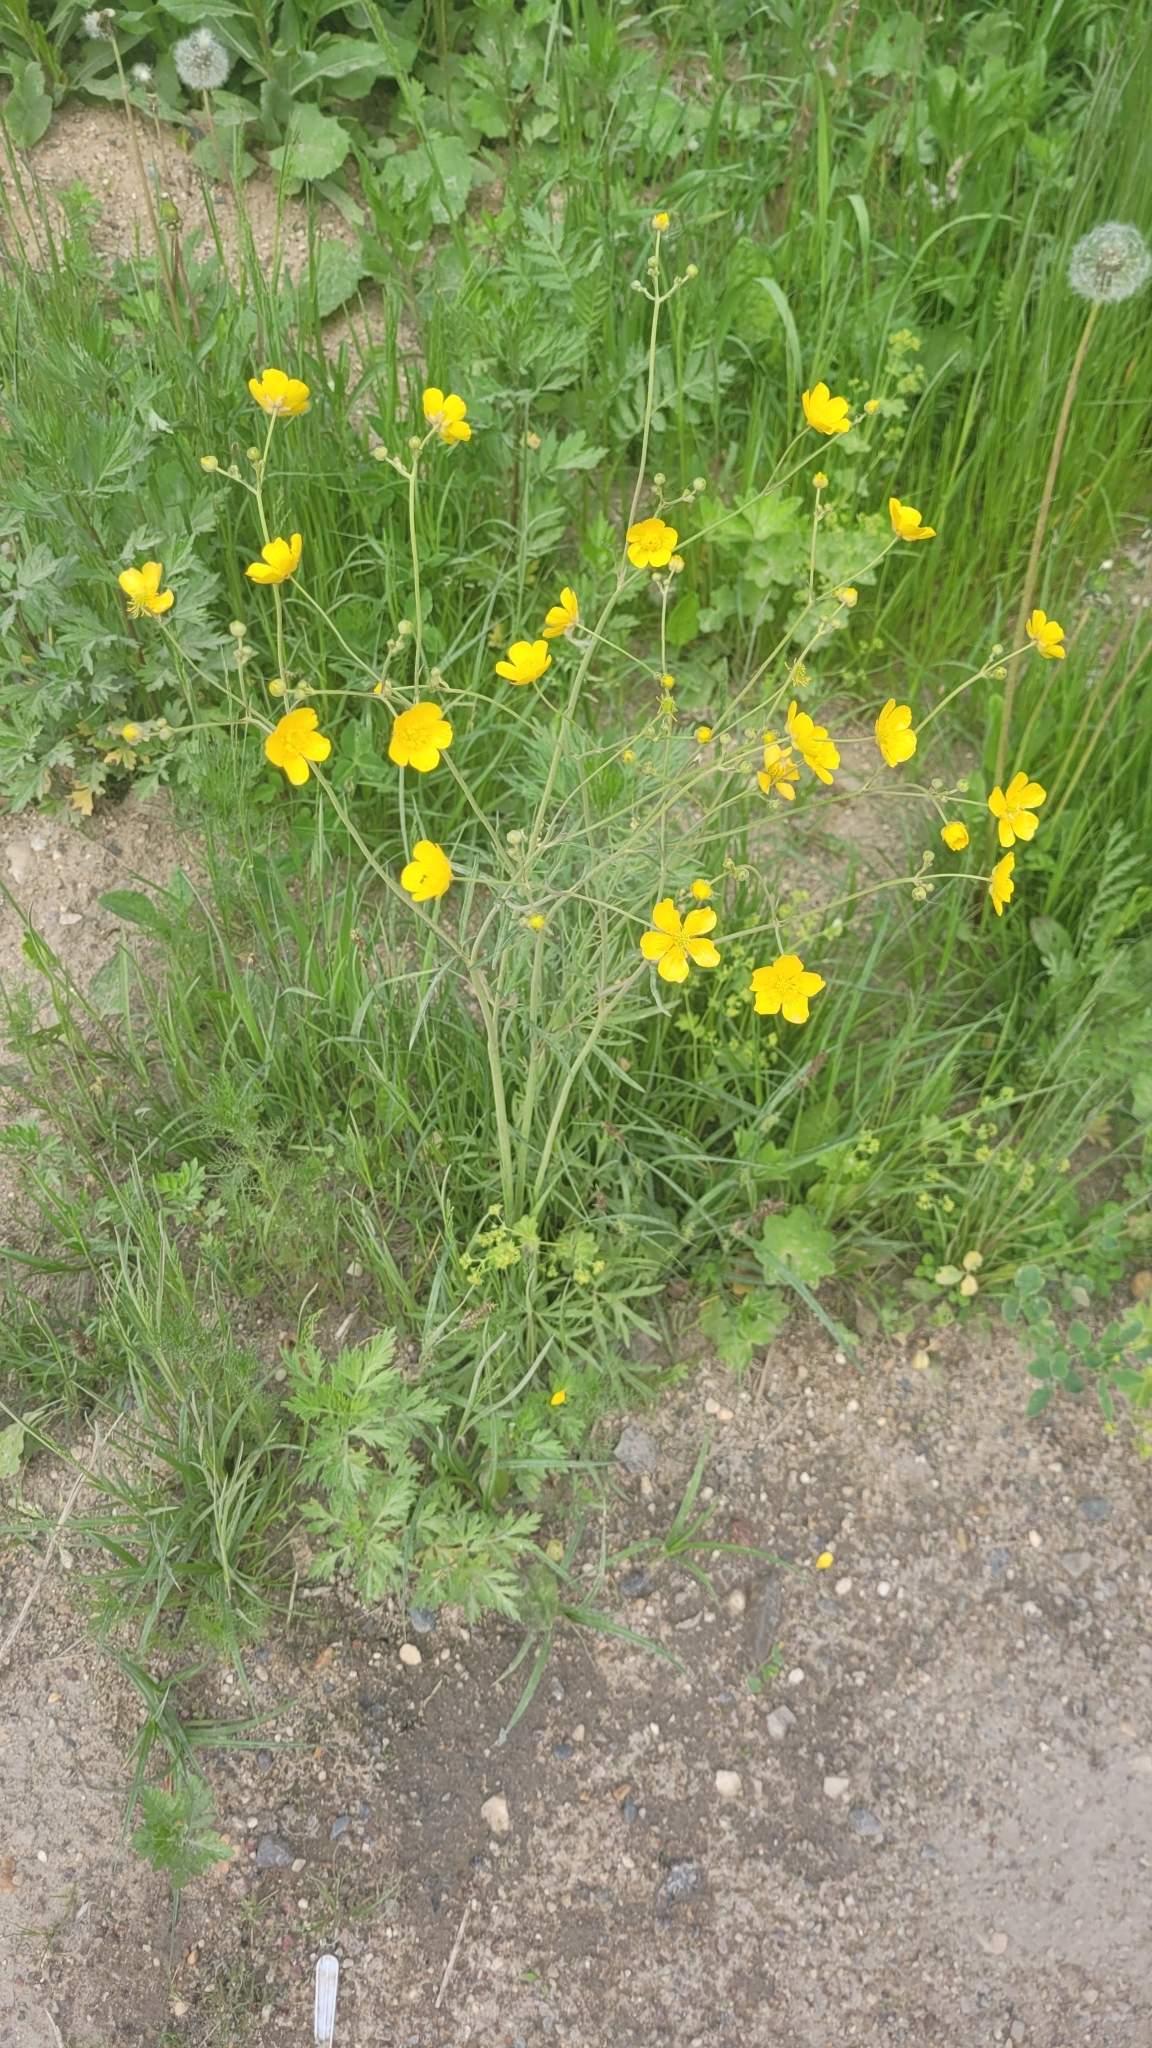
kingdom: Plantae
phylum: Tracheophyta
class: Magnoliopsida
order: Ranunculales
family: Ranunculaceae
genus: Ranunculus
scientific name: Ranunculus acris
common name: Meadow buttercup
